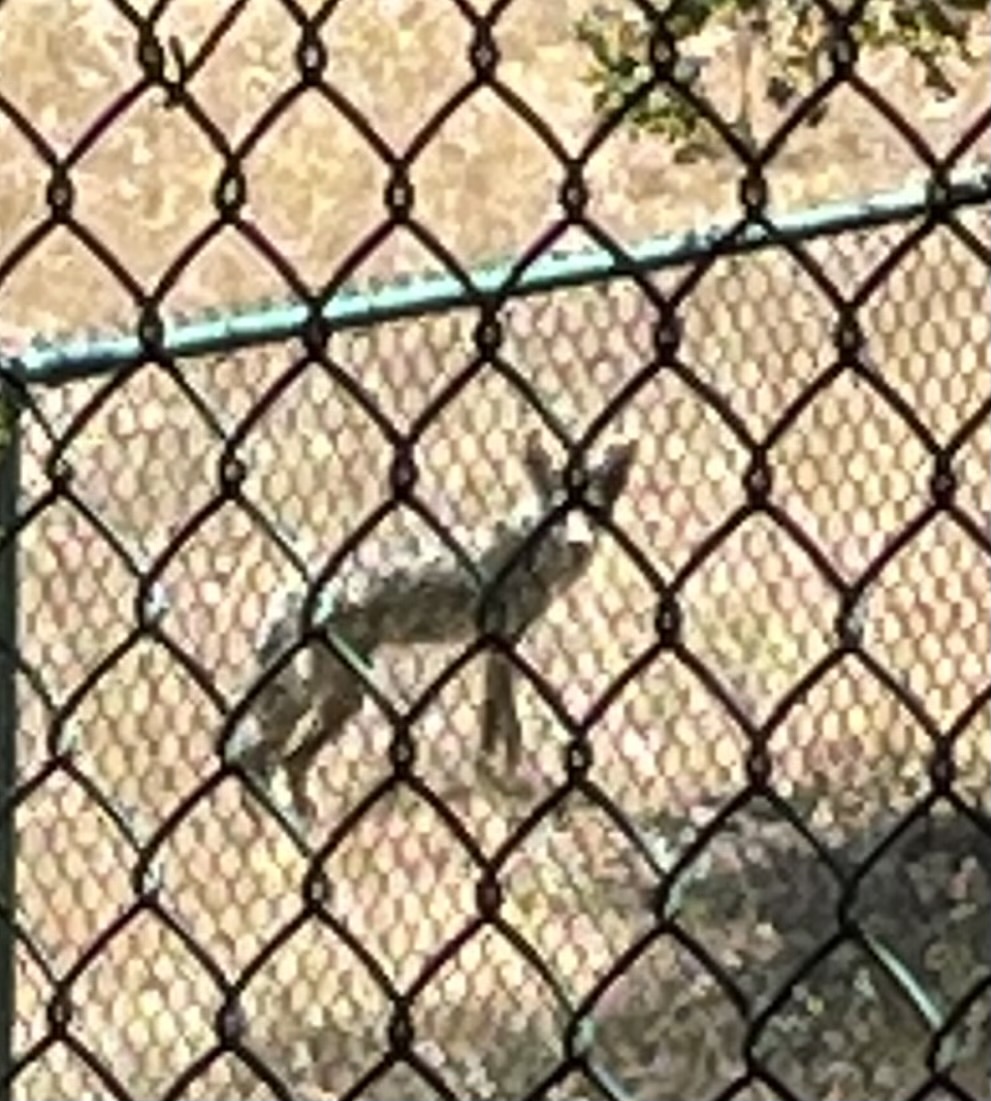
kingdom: Animalia
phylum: Chordata
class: Mammalia
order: Carnivora
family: Canidae
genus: Canis
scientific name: Canis latrans
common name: Coyote
